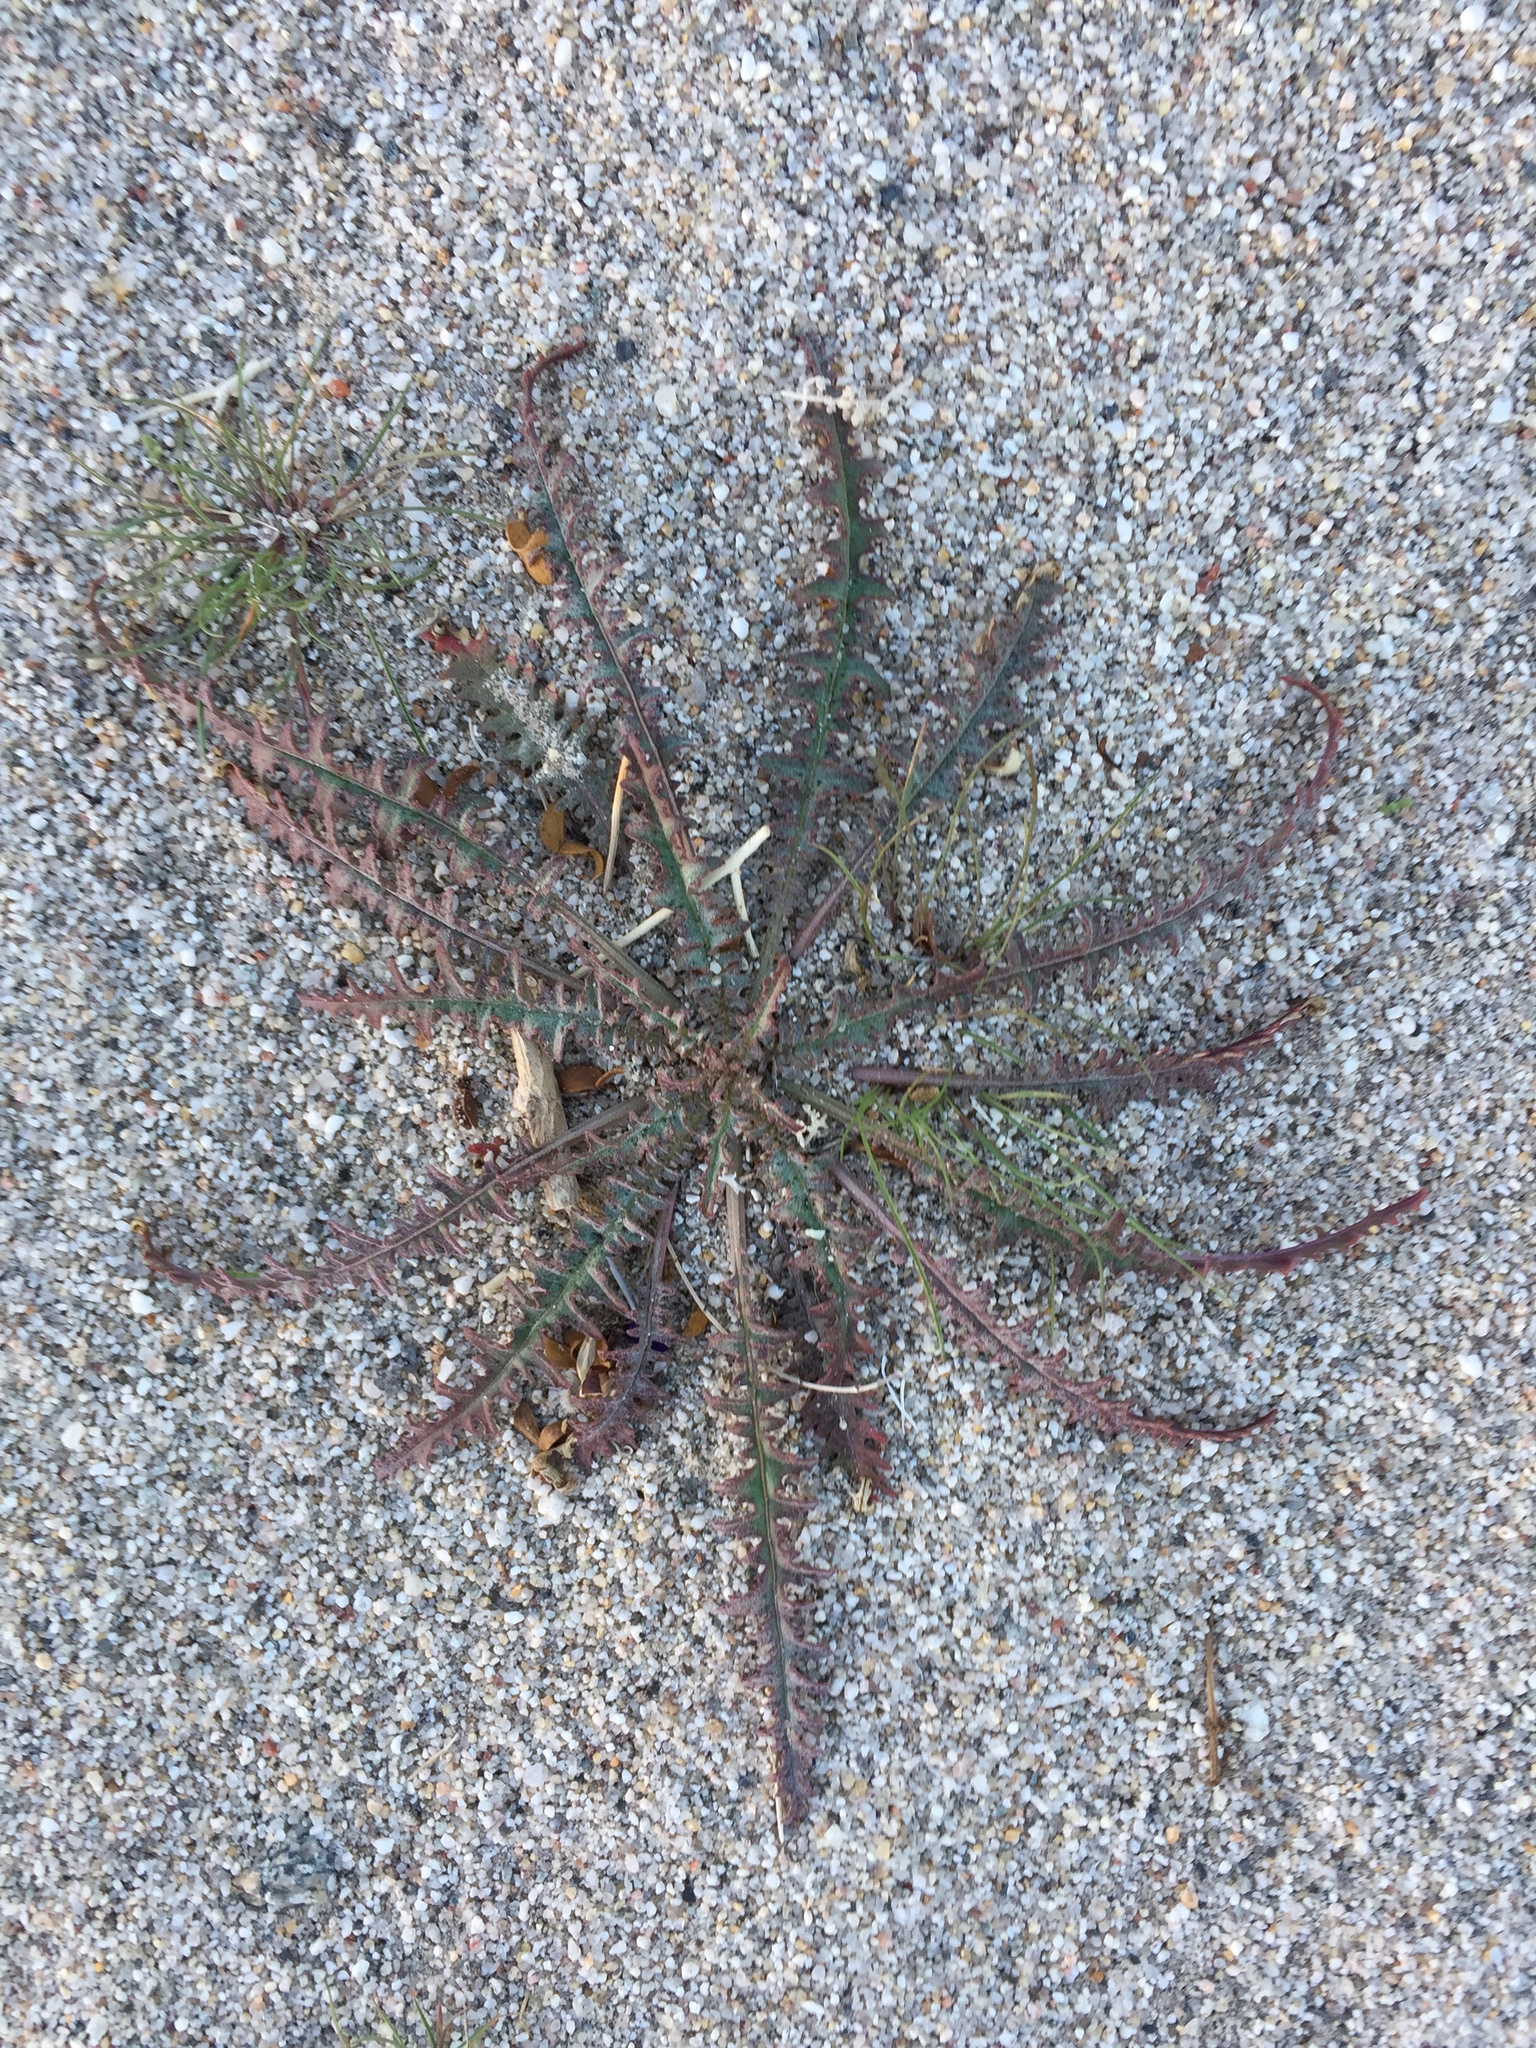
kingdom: Plantae
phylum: Tracheophyta
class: Magnoliopsida
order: Myrtales
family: Onagraceae
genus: Eulobus
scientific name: Eulobus californicus
